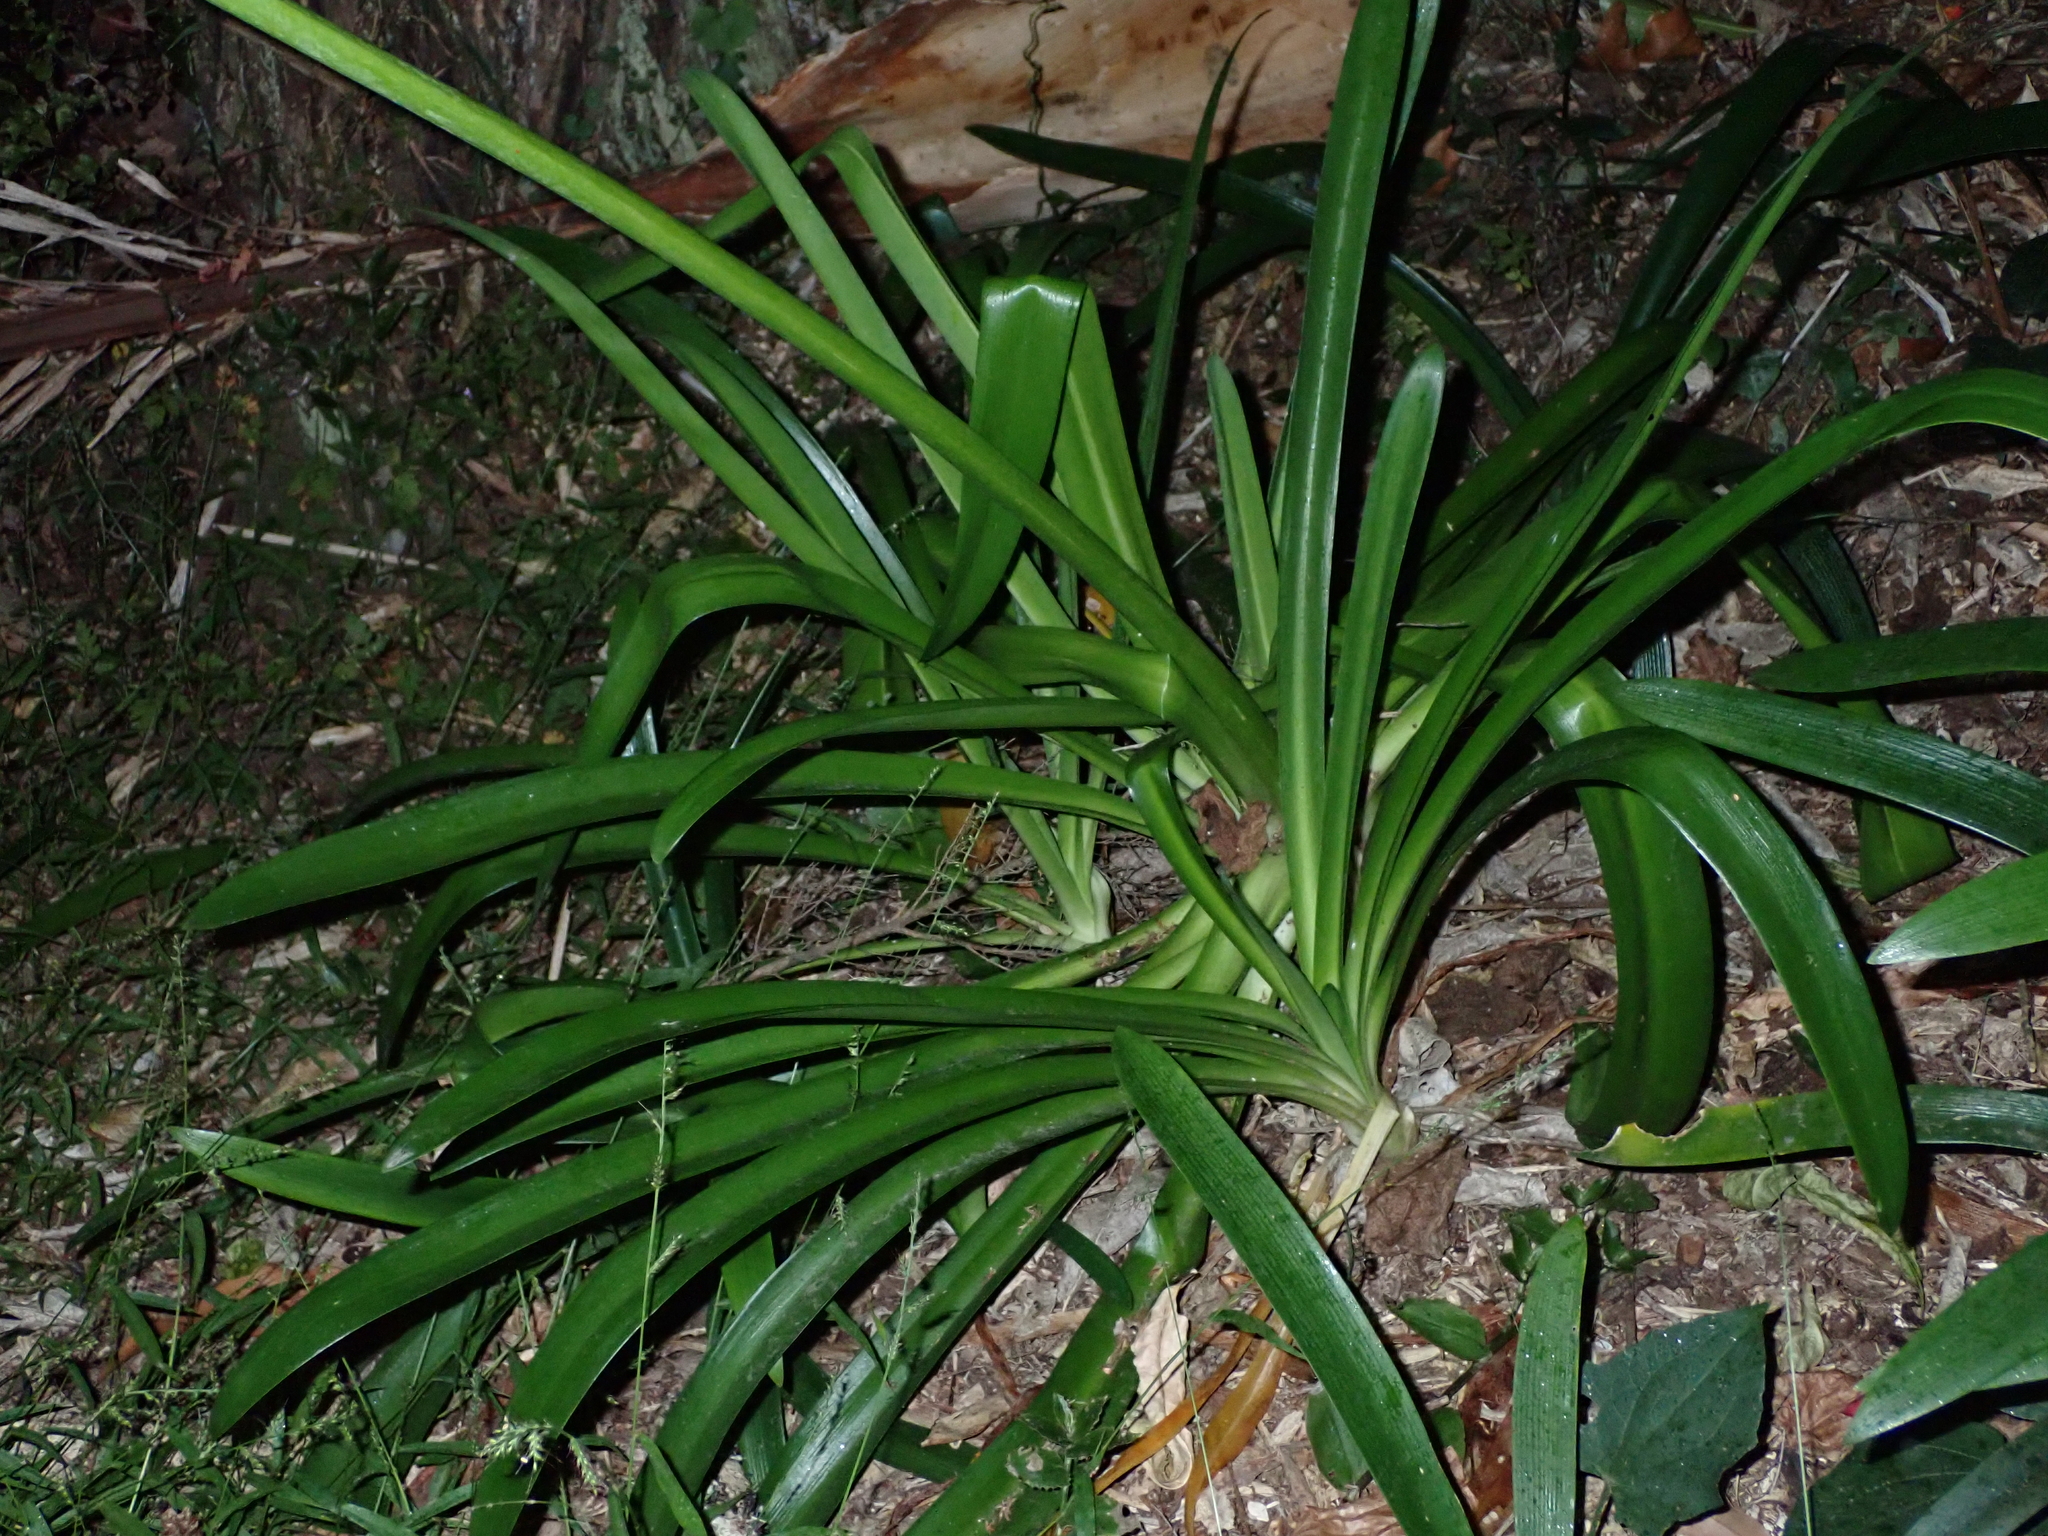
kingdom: Plantae
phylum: Tracheophyta
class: Liliopsida
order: Asparagales
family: Amaryllidaceae
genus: Agapanthus
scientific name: Agapanthus praecox
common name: African-lily
